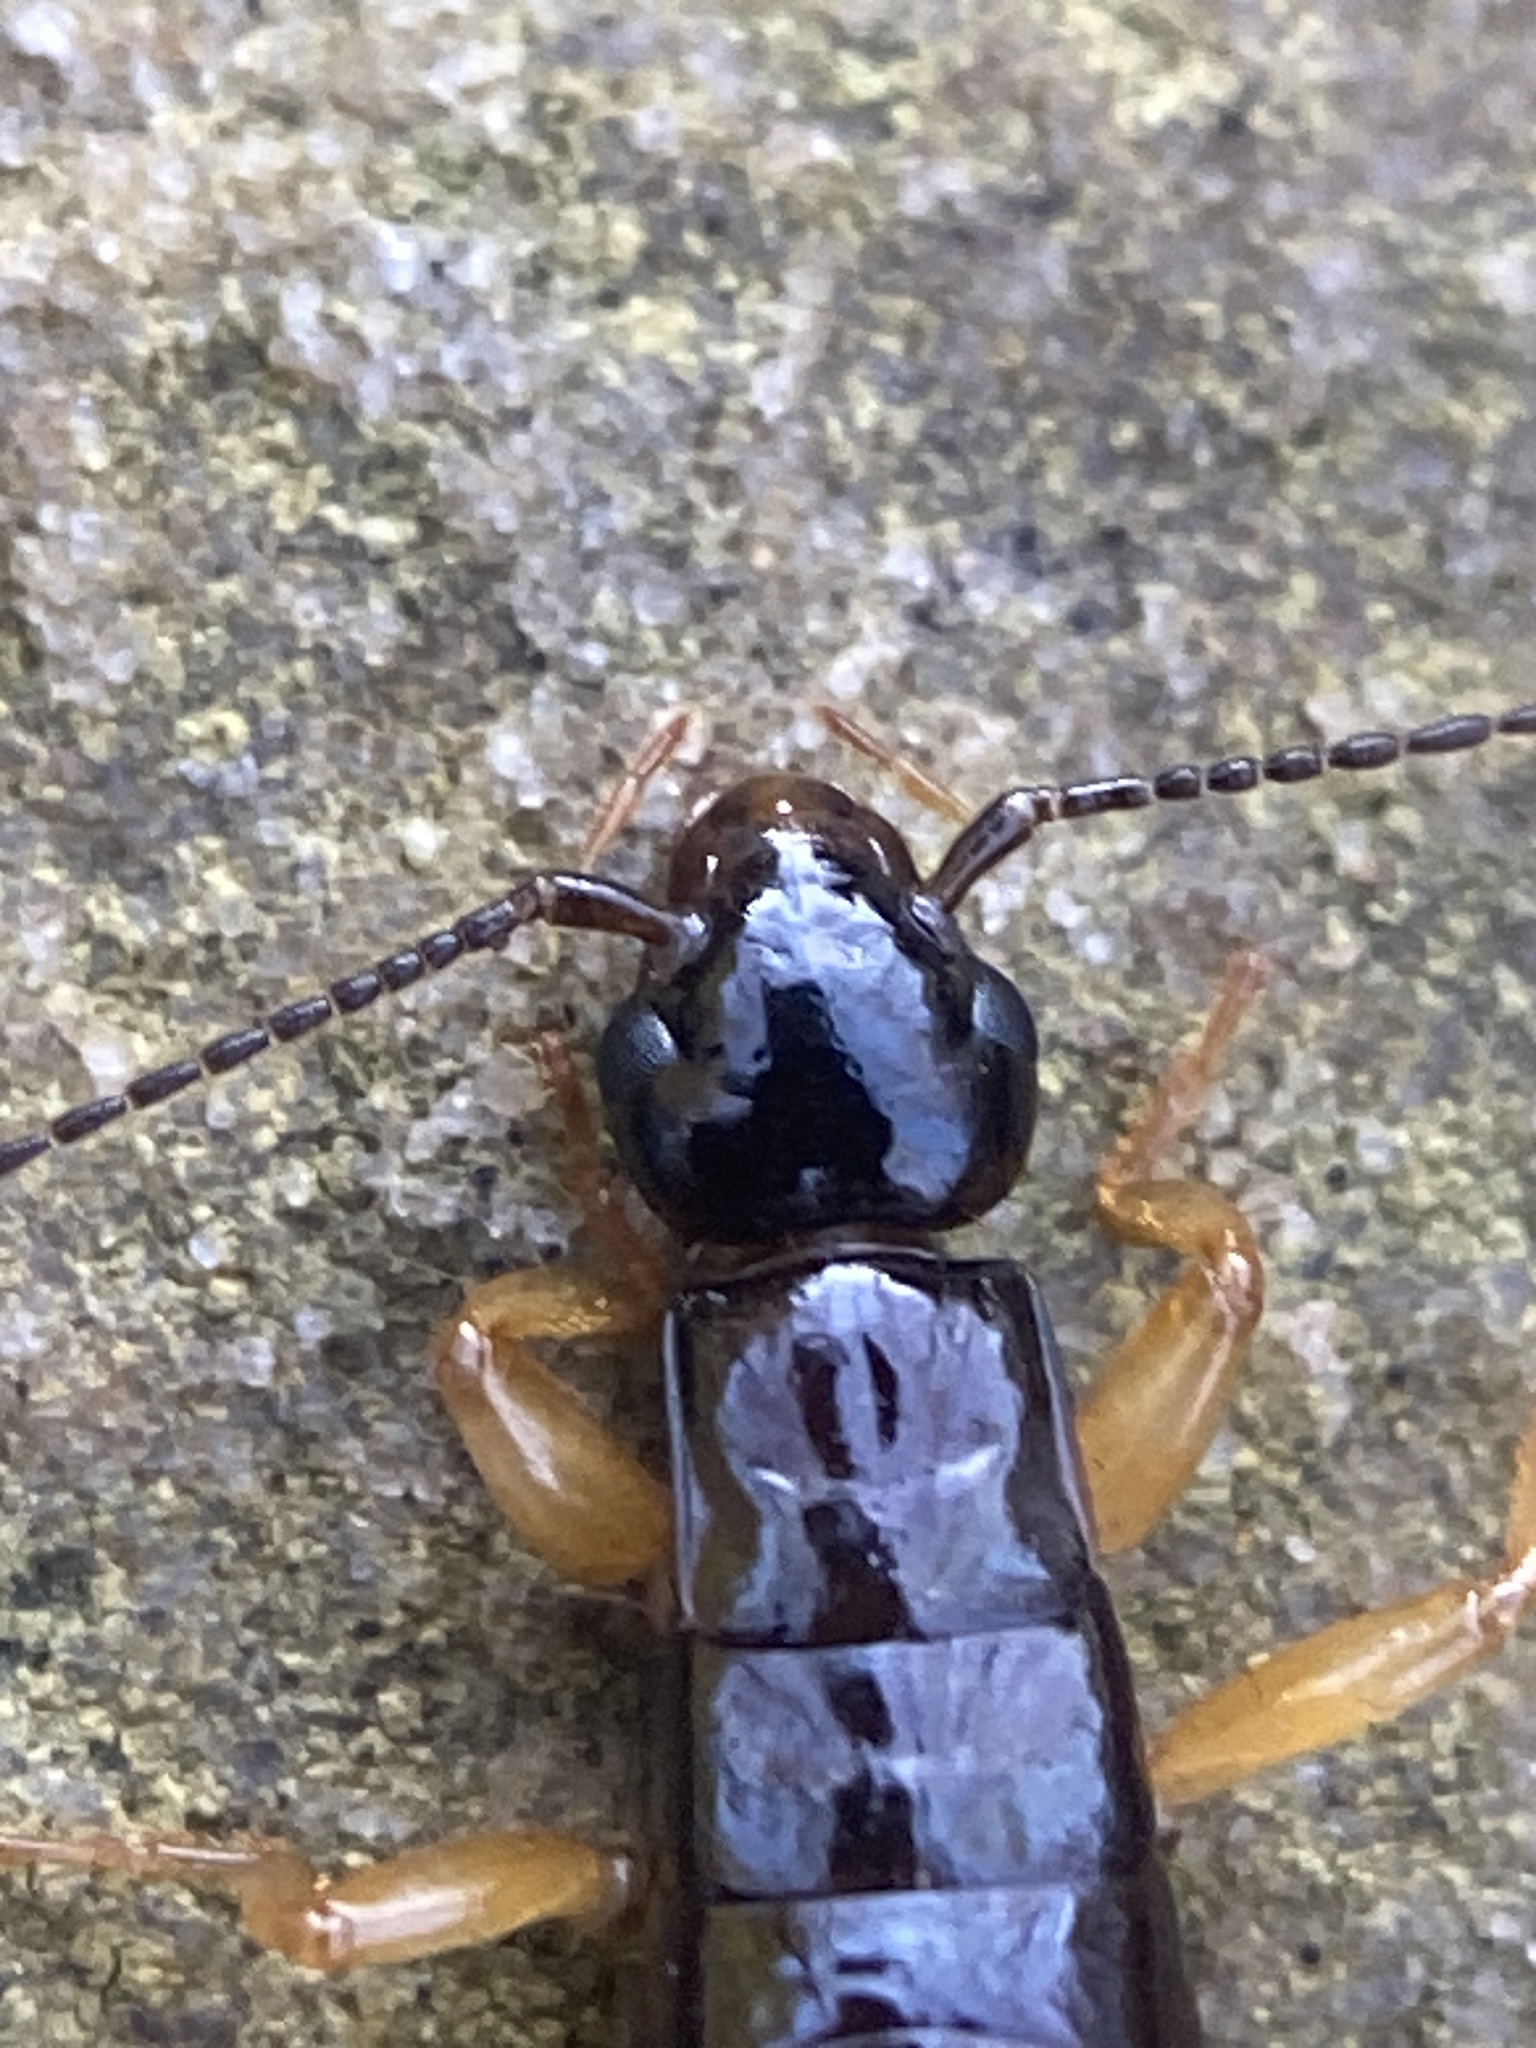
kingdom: Animalia
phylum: Arthropoda
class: Insecta
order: Dermaptera
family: Anisolabididae
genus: Euborellia
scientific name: Euborellia arcanum
